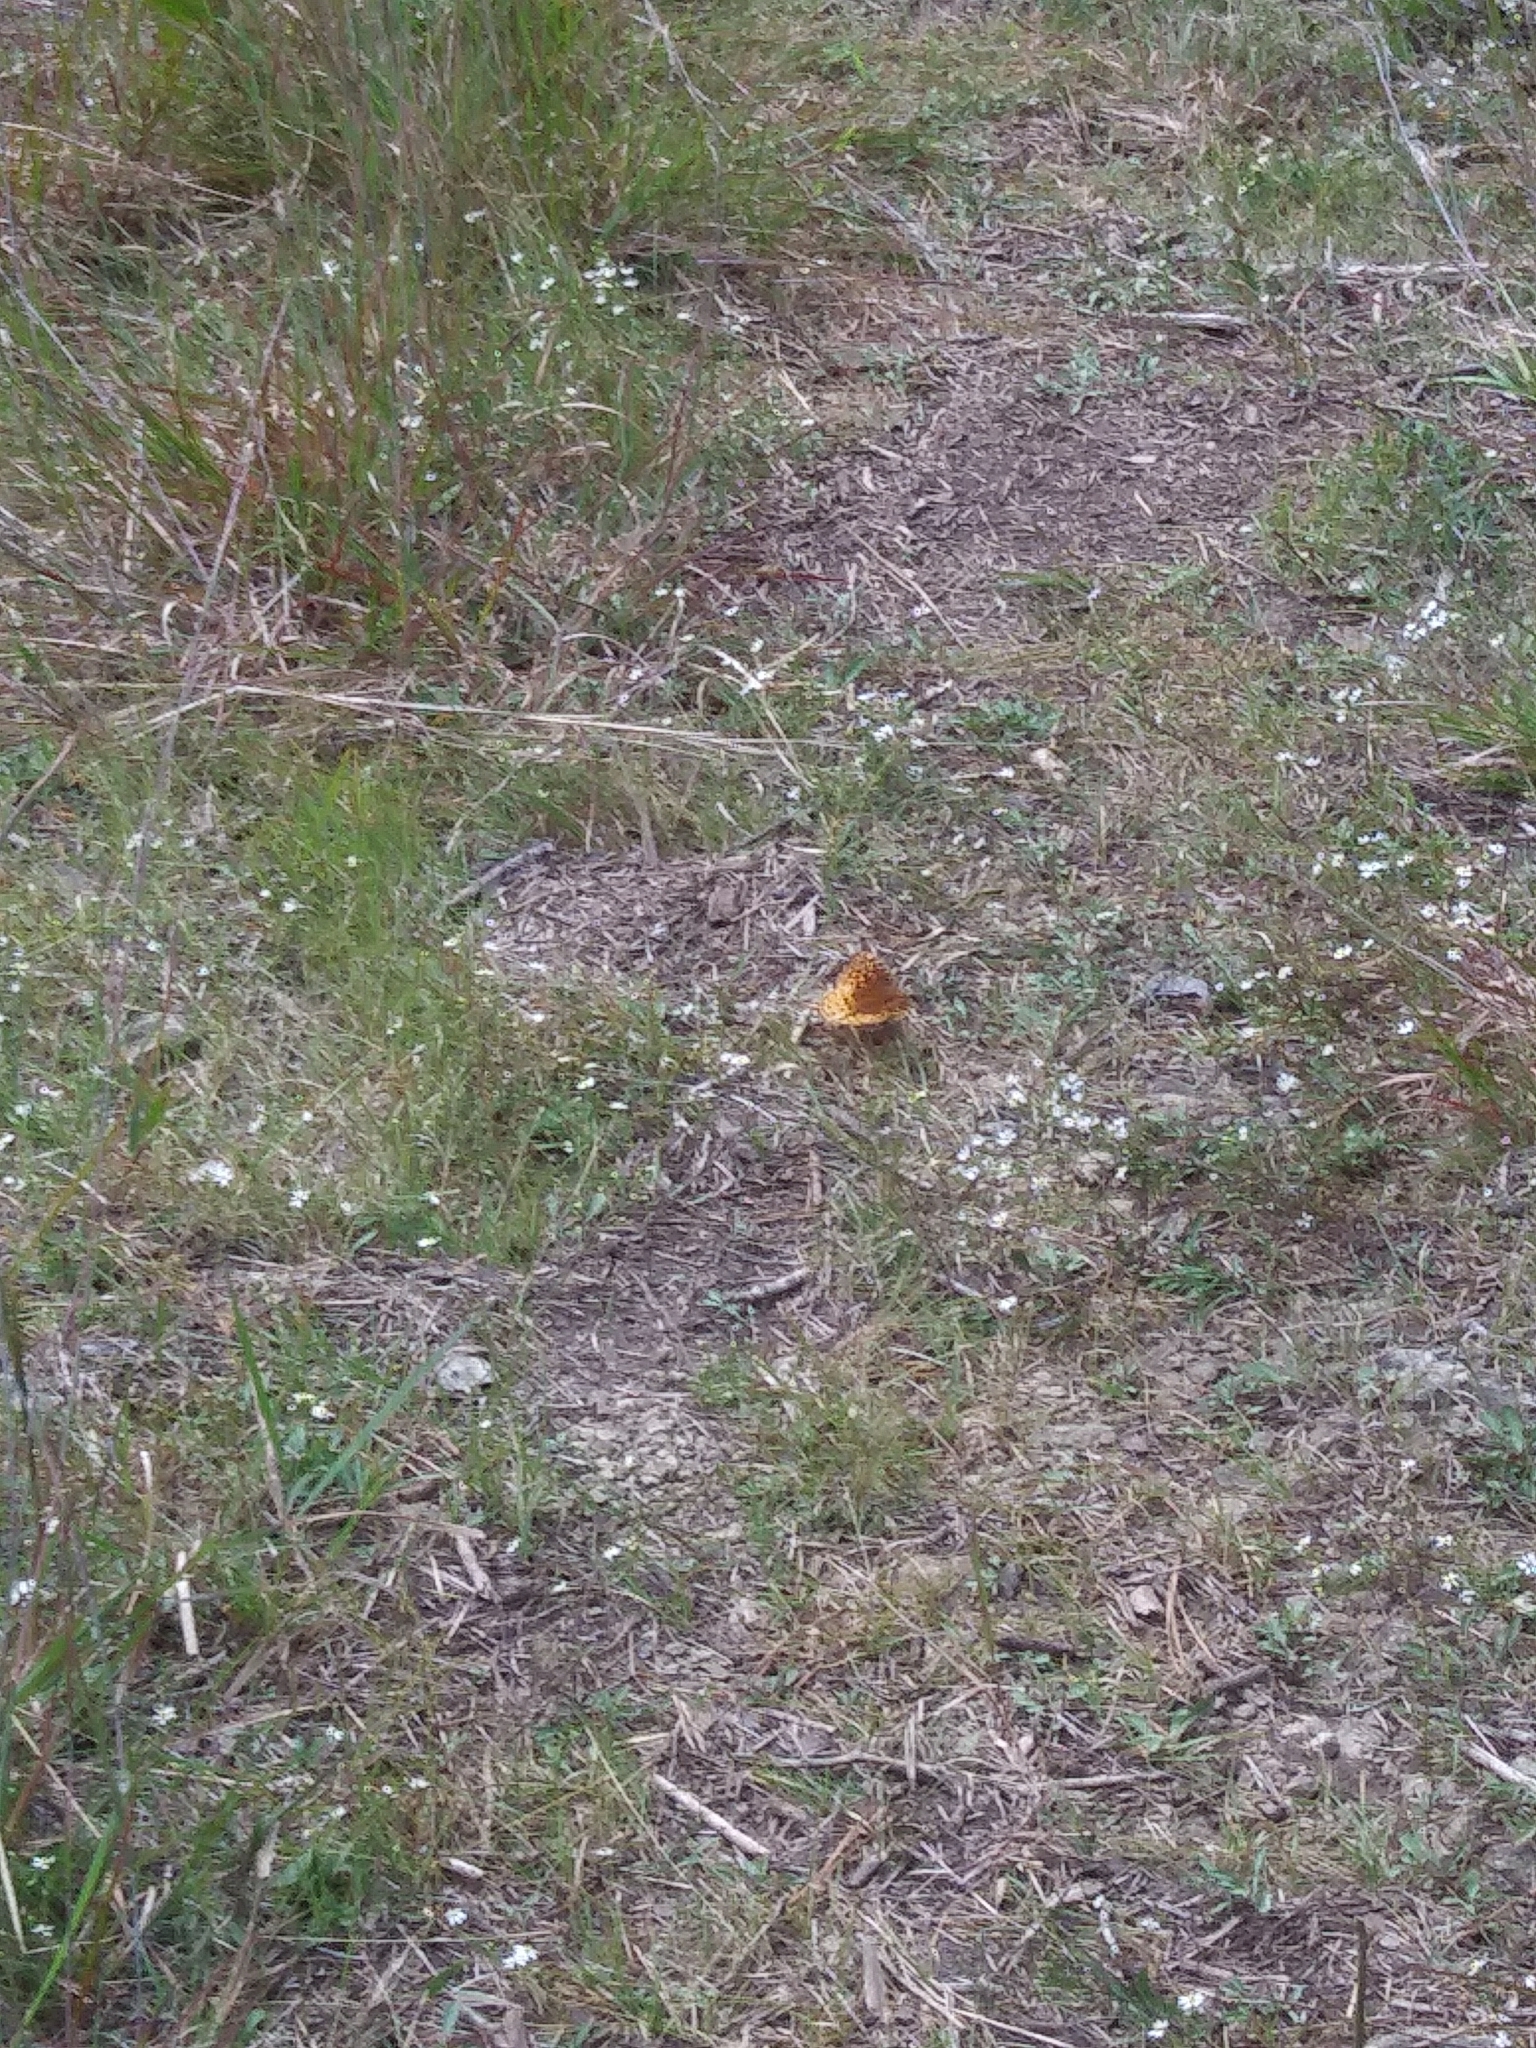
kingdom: Animalia
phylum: Arthropoda
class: Insecta
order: Lepidoptera
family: Nymphalidae
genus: Speyeria
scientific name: Speyeria cybele
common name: Great spangled fritillary
